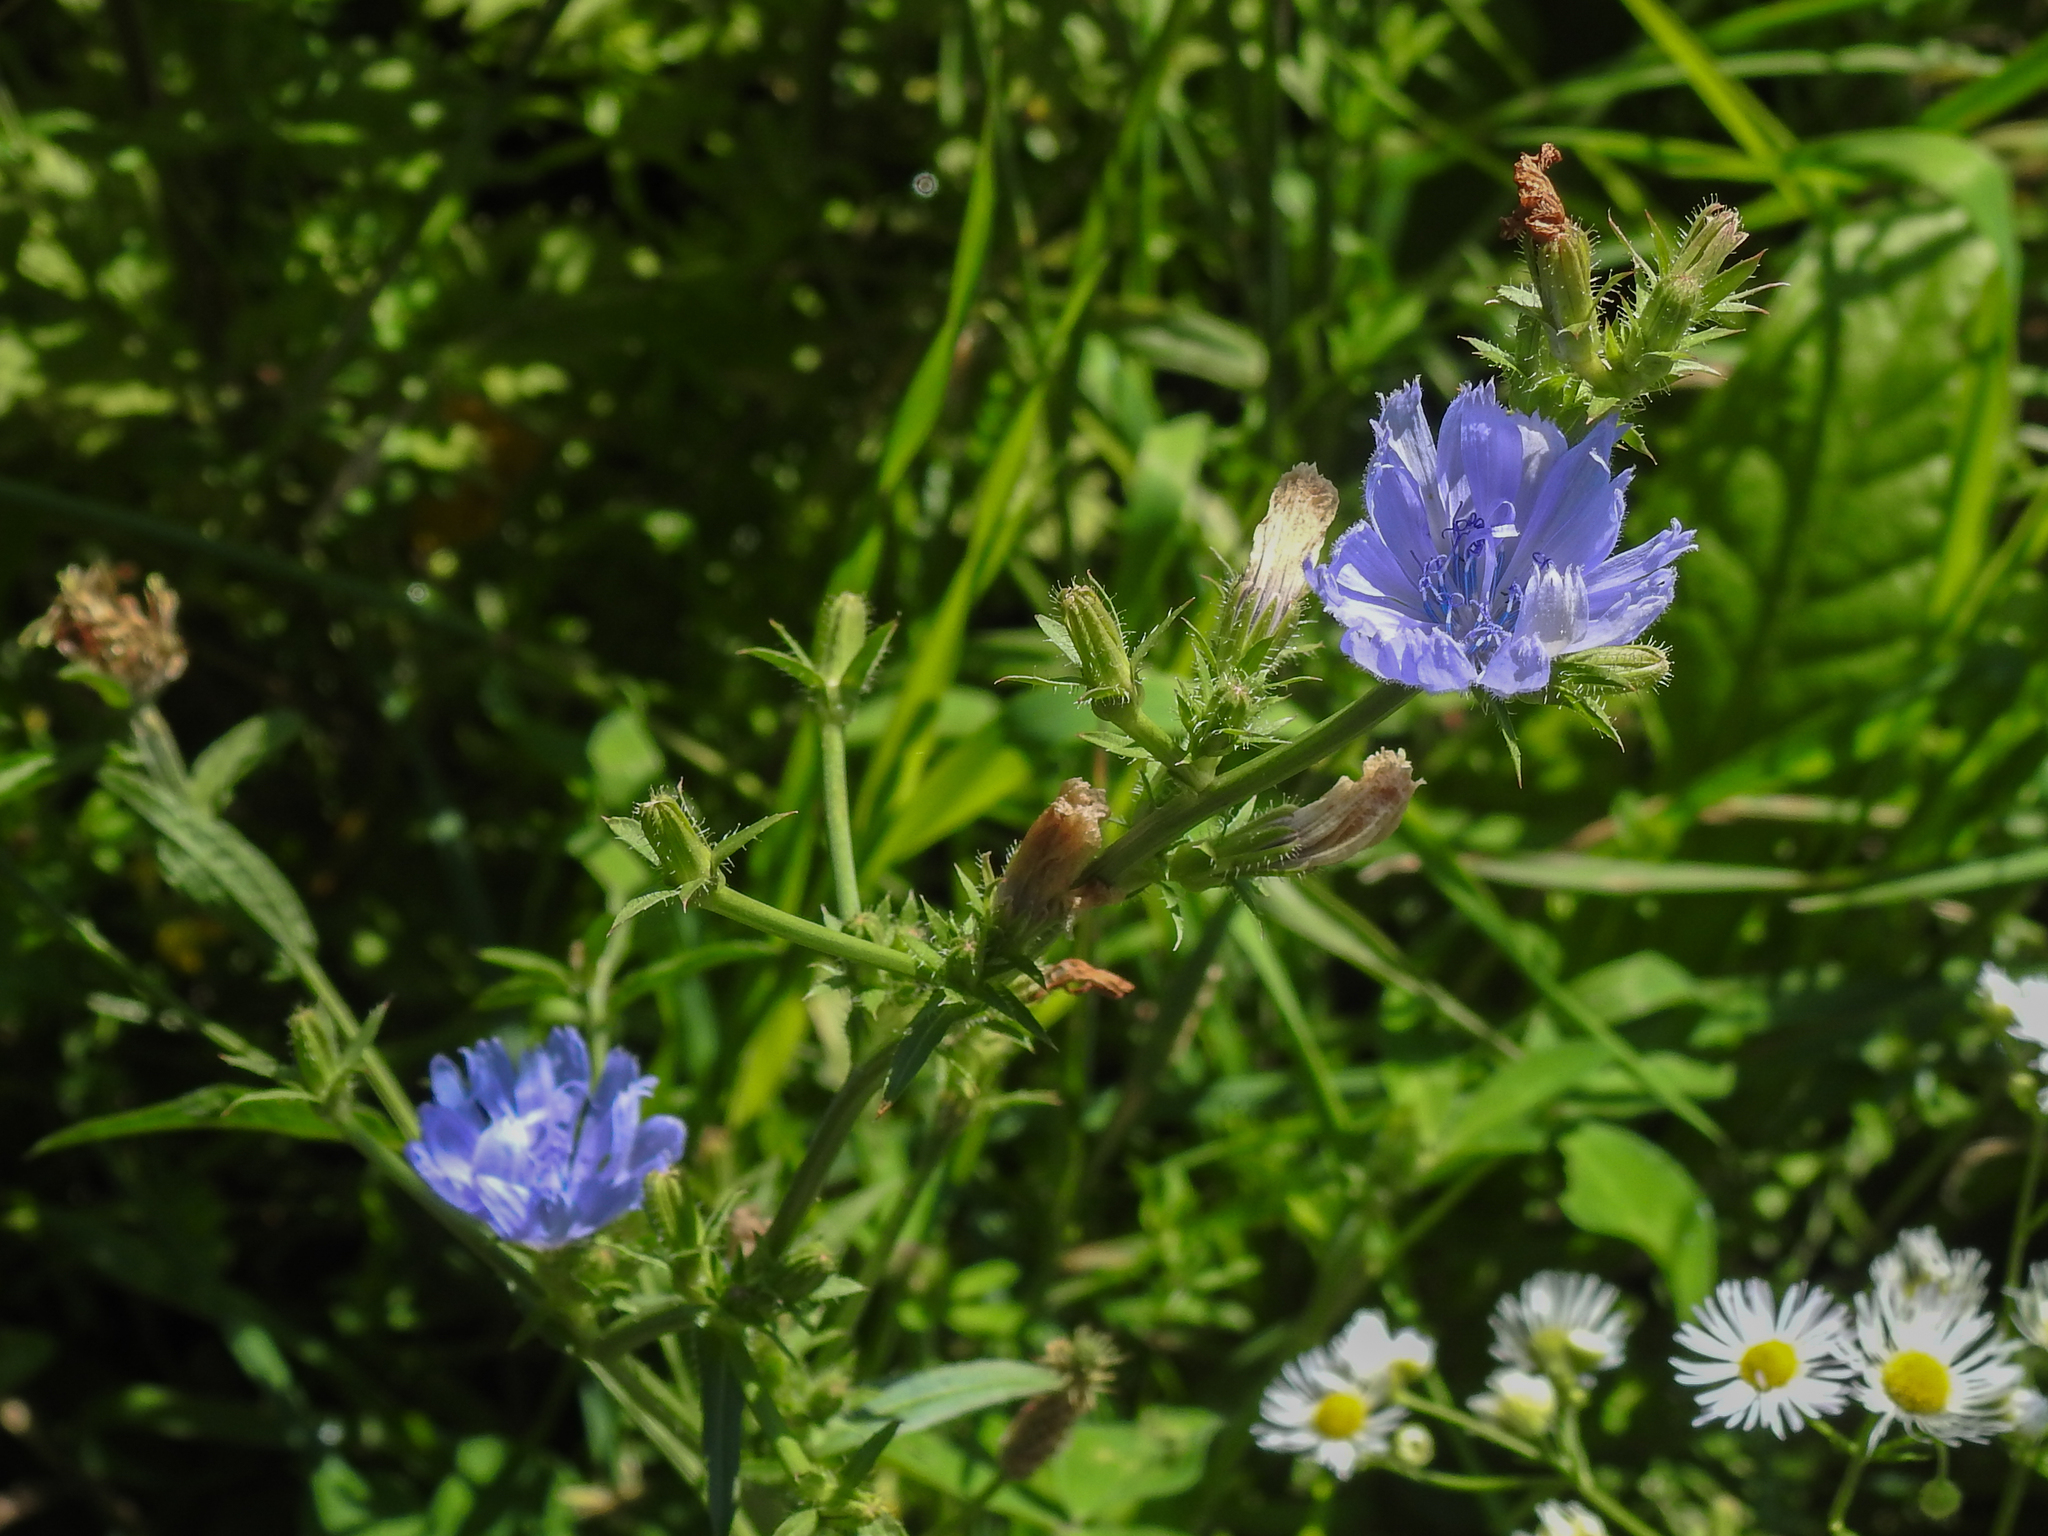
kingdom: Plantae
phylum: Tracheophyta
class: Magnoliopsida
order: Asterales
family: Asteraceae
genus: Cichorium
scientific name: Cichorium intybus
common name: Chicory
